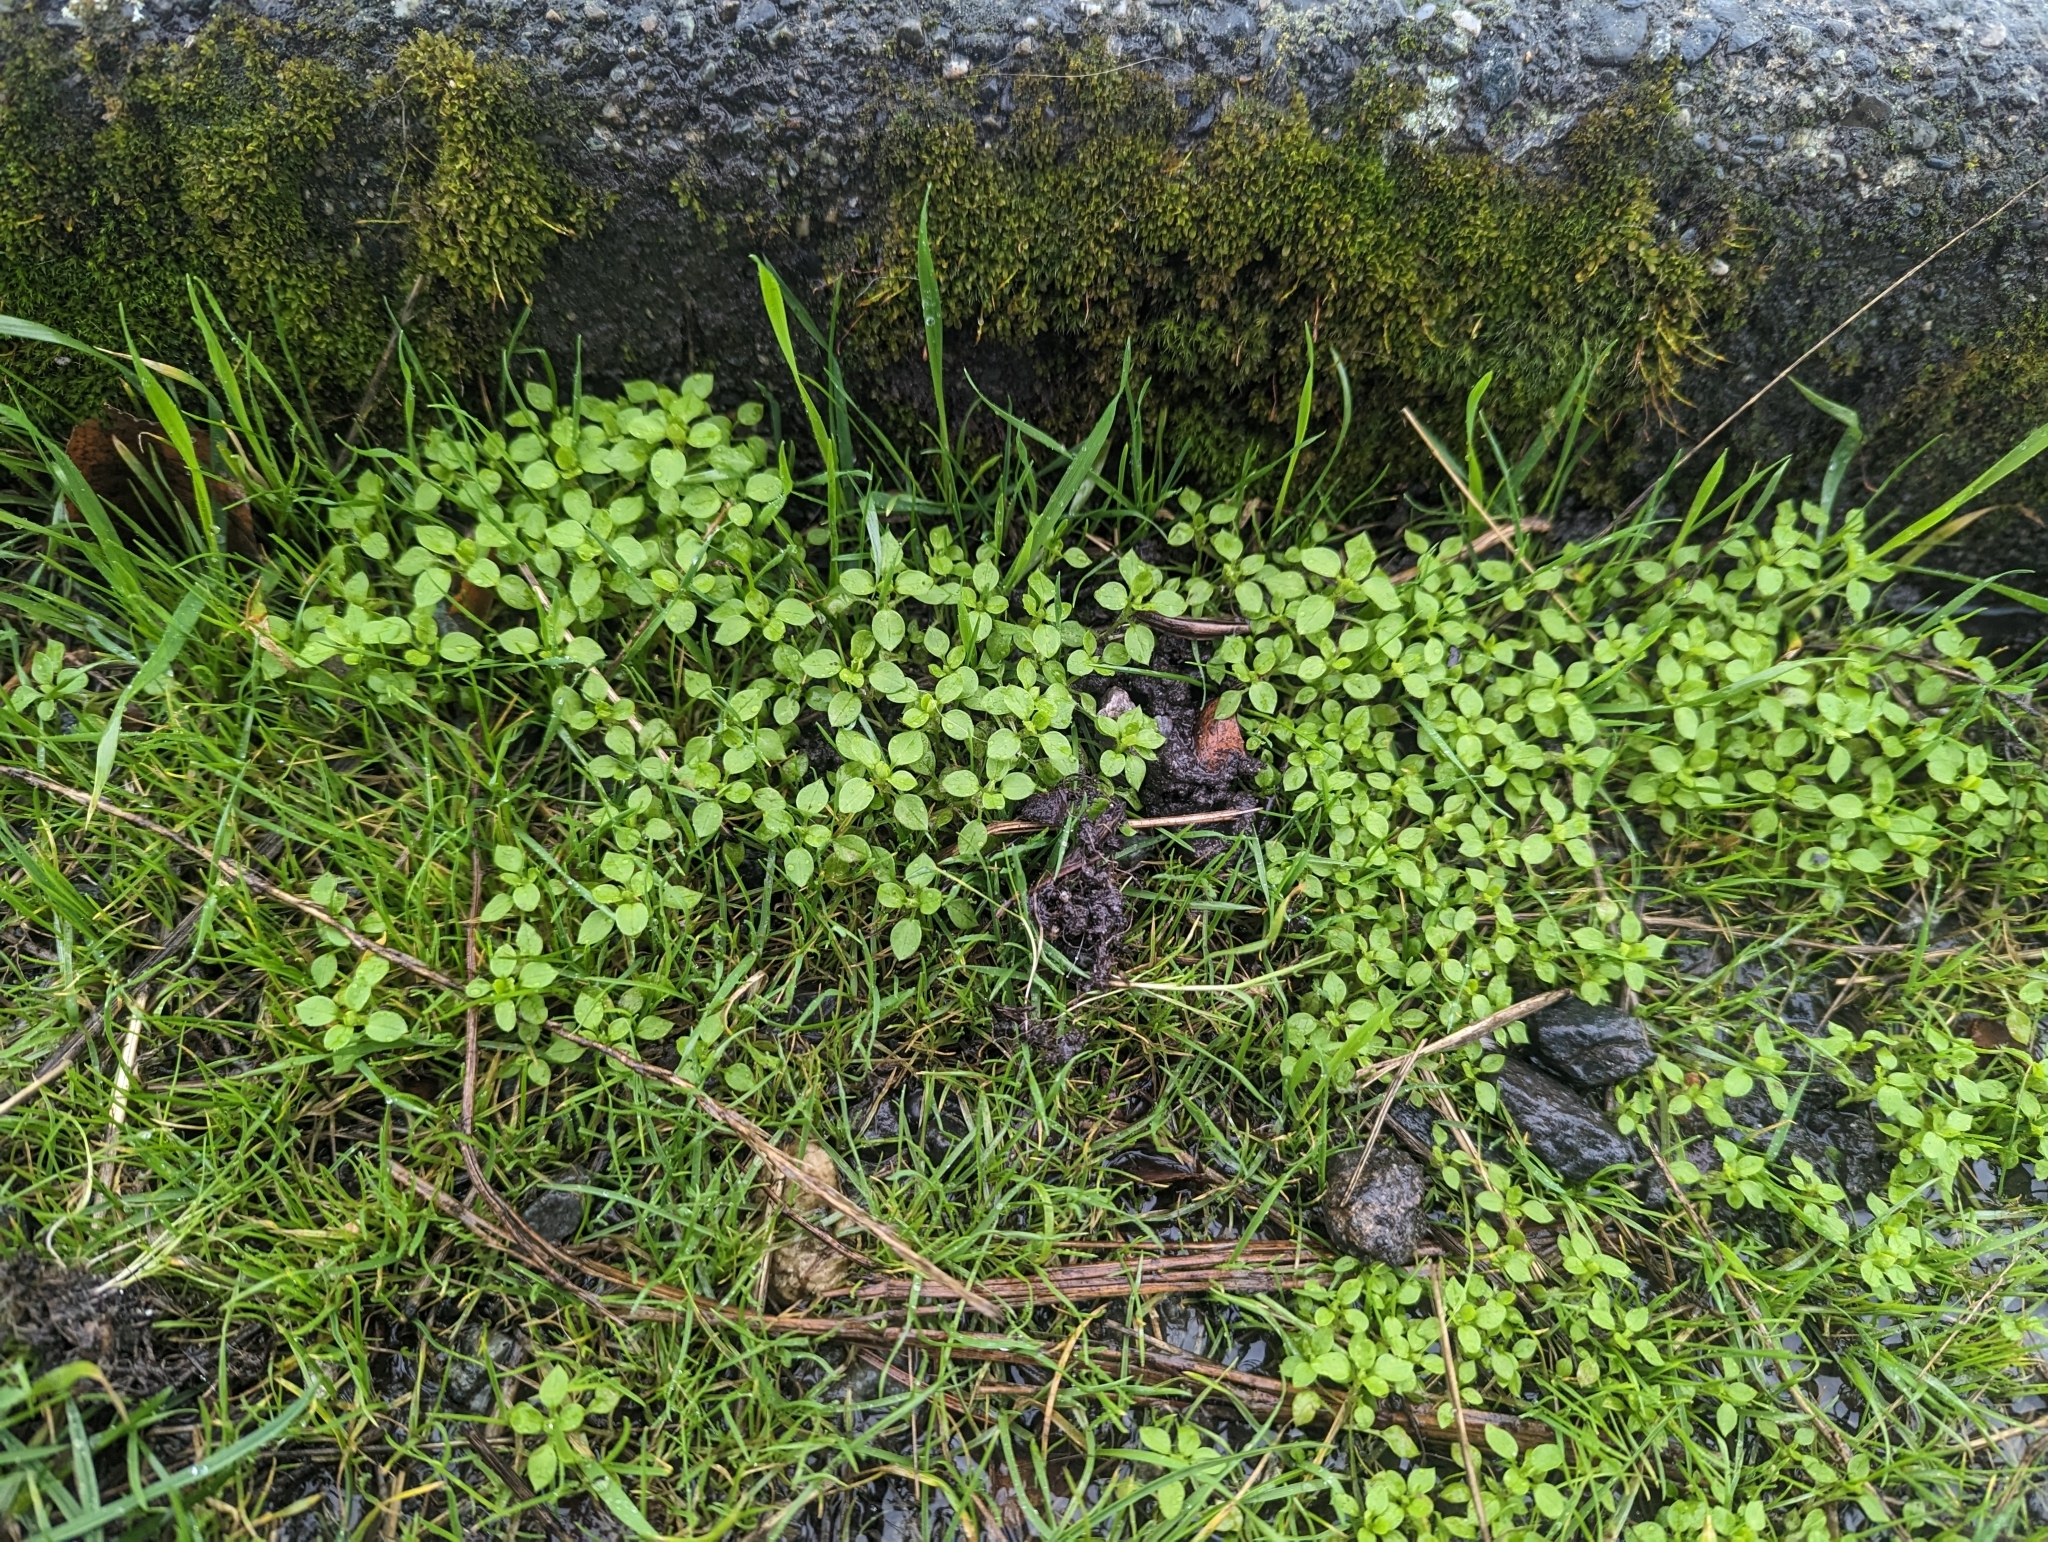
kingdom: Plantae
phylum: Tracheophyta
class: Magnoliopsida
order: Caryophyllales
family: Caryophyllaceae
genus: Stellaria
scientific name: Stellaria media
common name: Common chickweed
